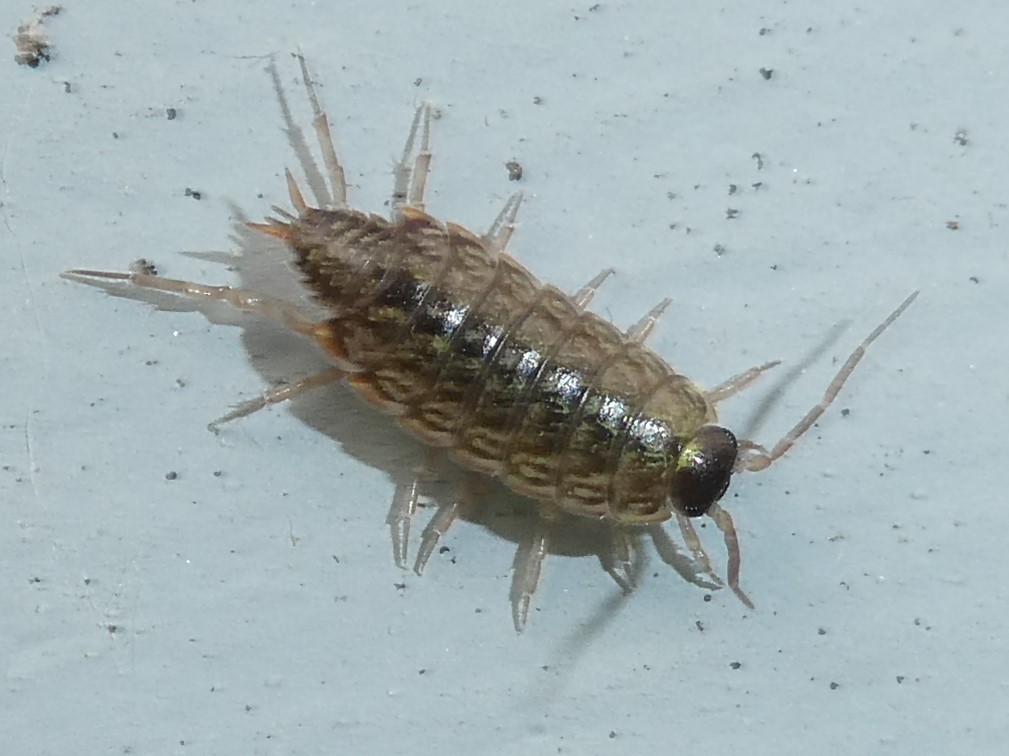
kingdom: Animalia
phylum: Arthropoda
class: Malacostraca
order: Isopoda
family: Philosciidae
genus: Philoscia
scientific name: Philoscia muscorum
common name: Common striped woodlouse
